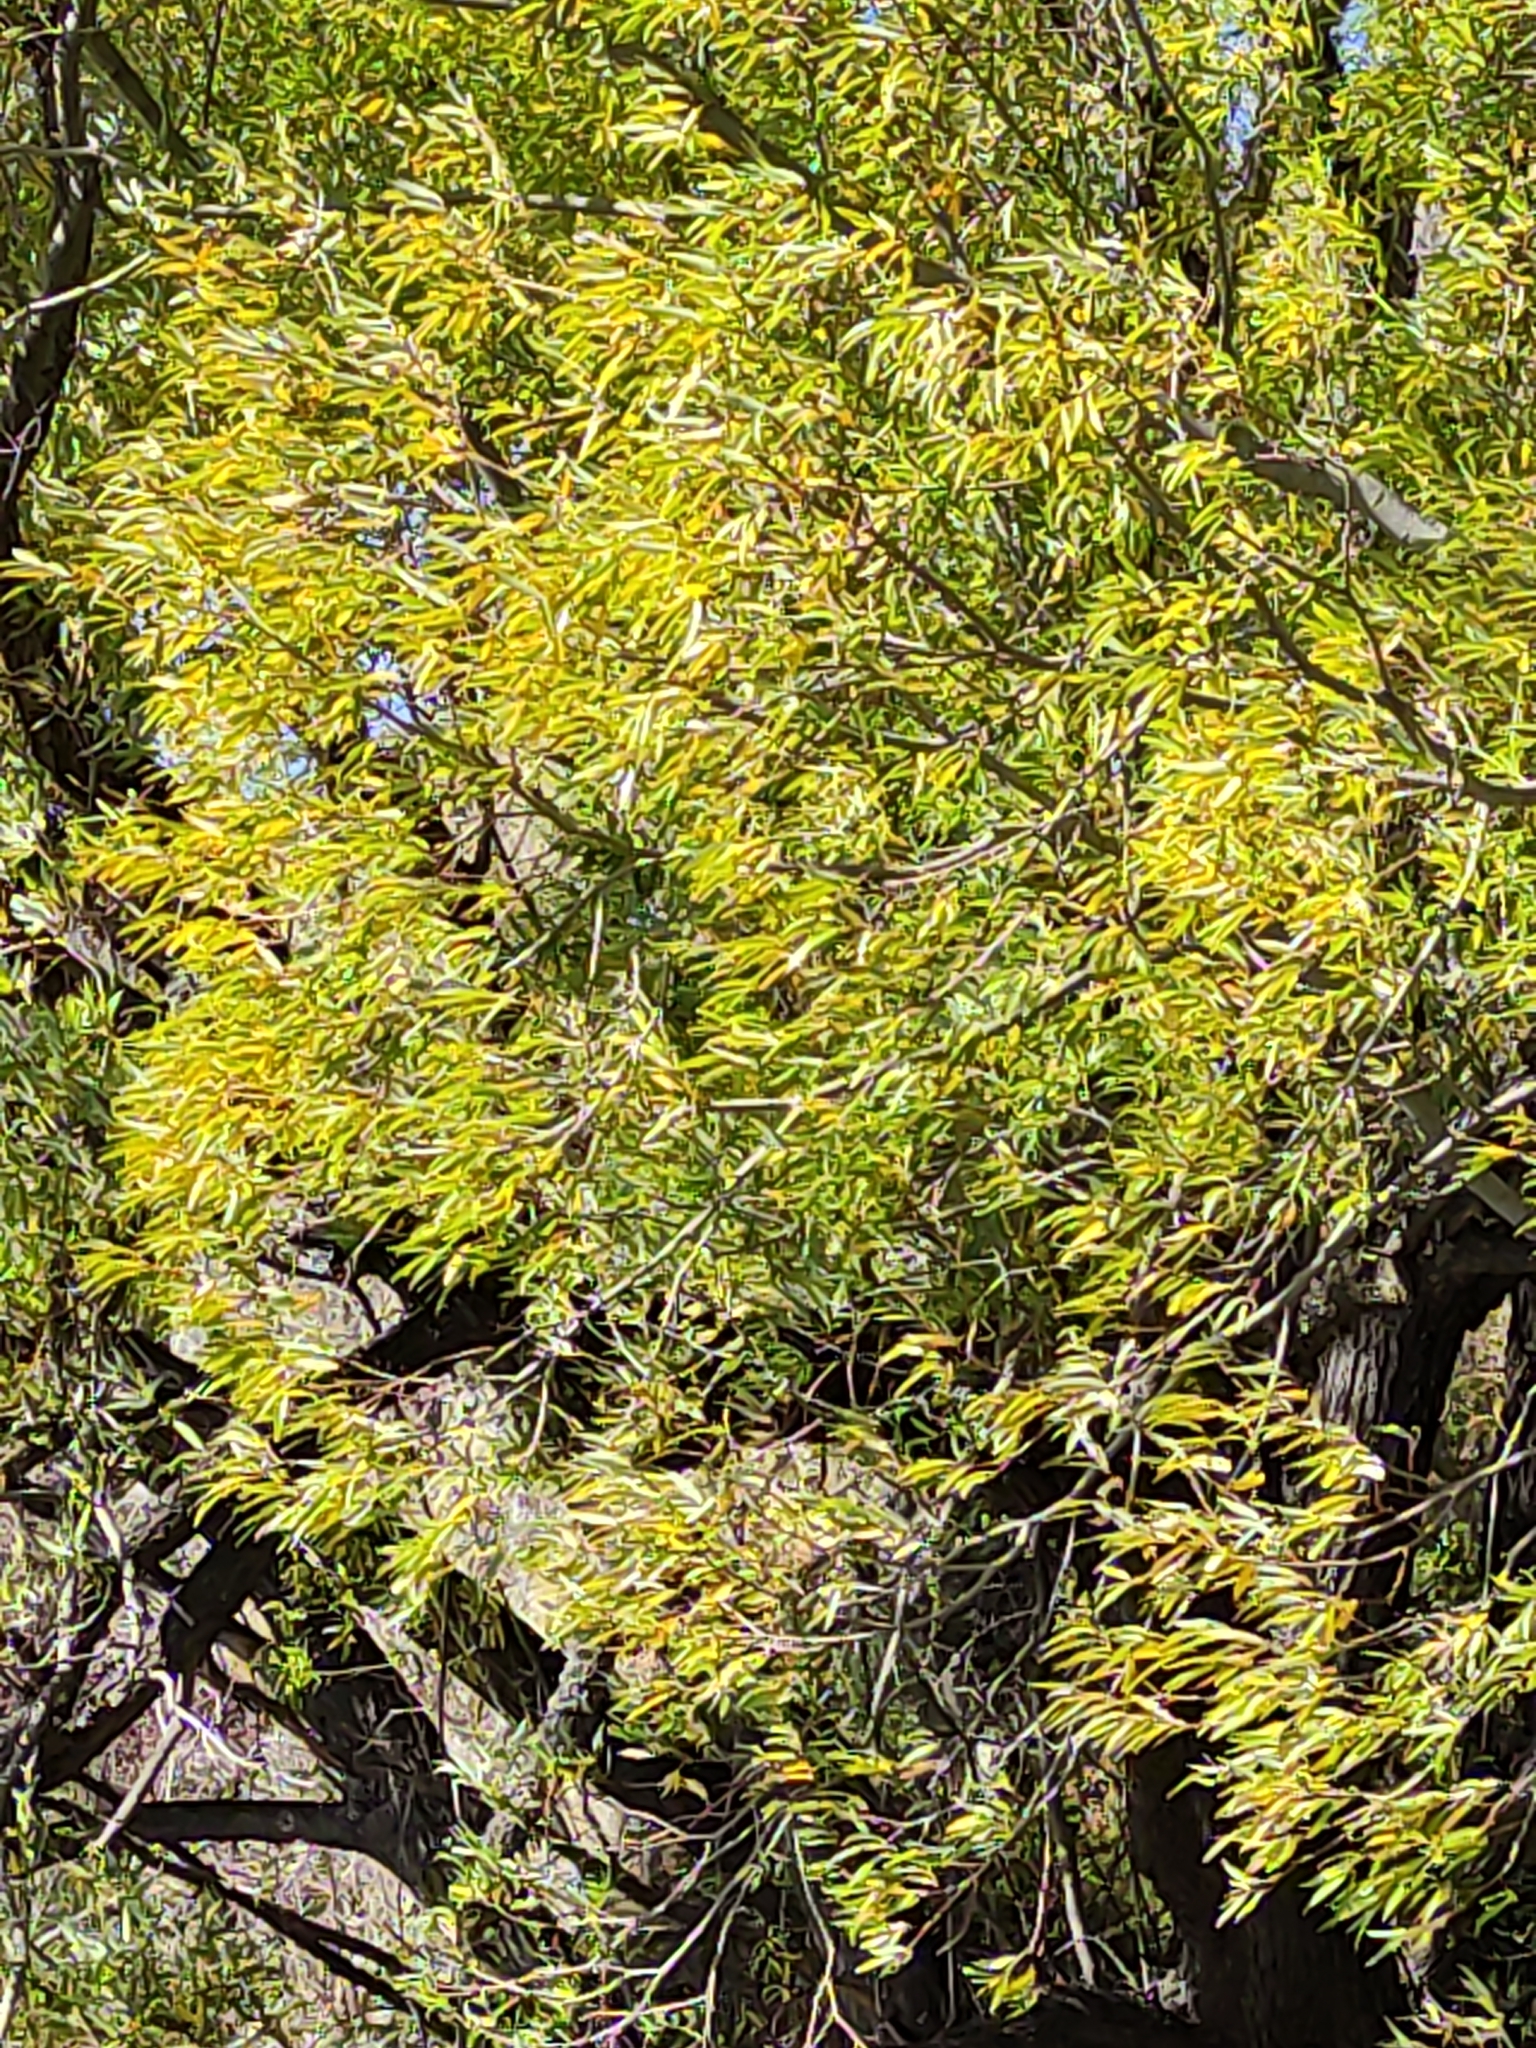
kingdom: Plantae
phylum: Tracheophyta
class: Magnoliopsida
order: Malpighiales
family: Salicaceae
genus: Salix
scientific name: Salix fragilis
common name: Crack willow
